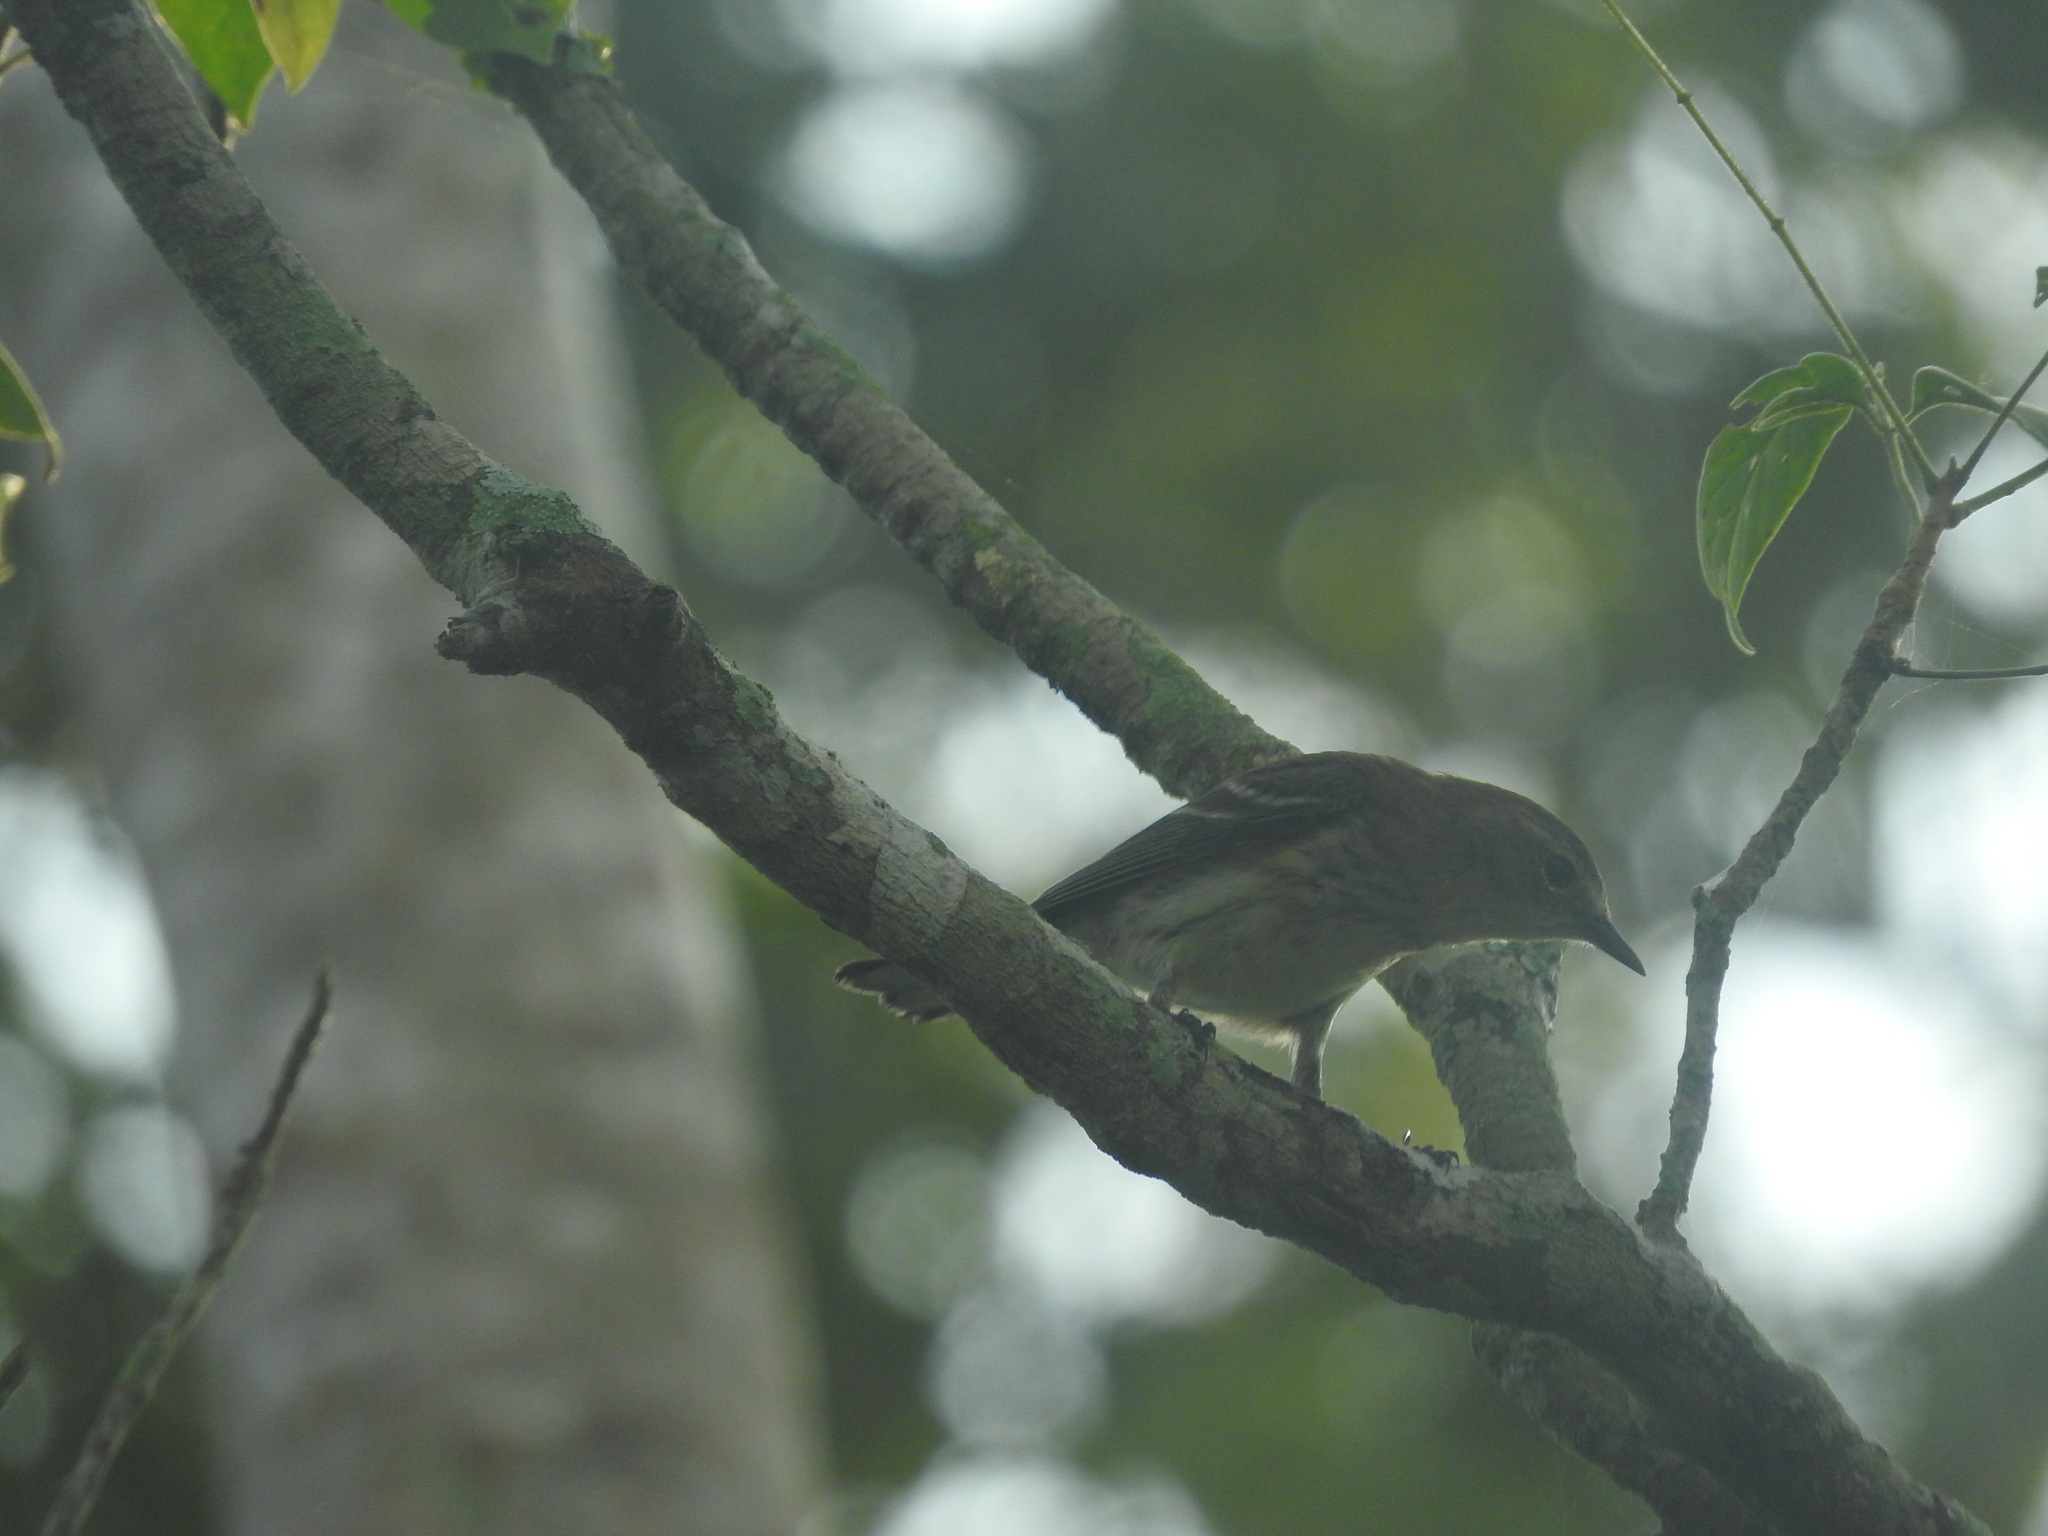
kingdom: Animalia
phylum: Chordata
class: Aves
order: Passeriformes
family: Parulidae
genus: Setophaga
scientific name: Setophaga coronata
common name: Myrtle warbler
